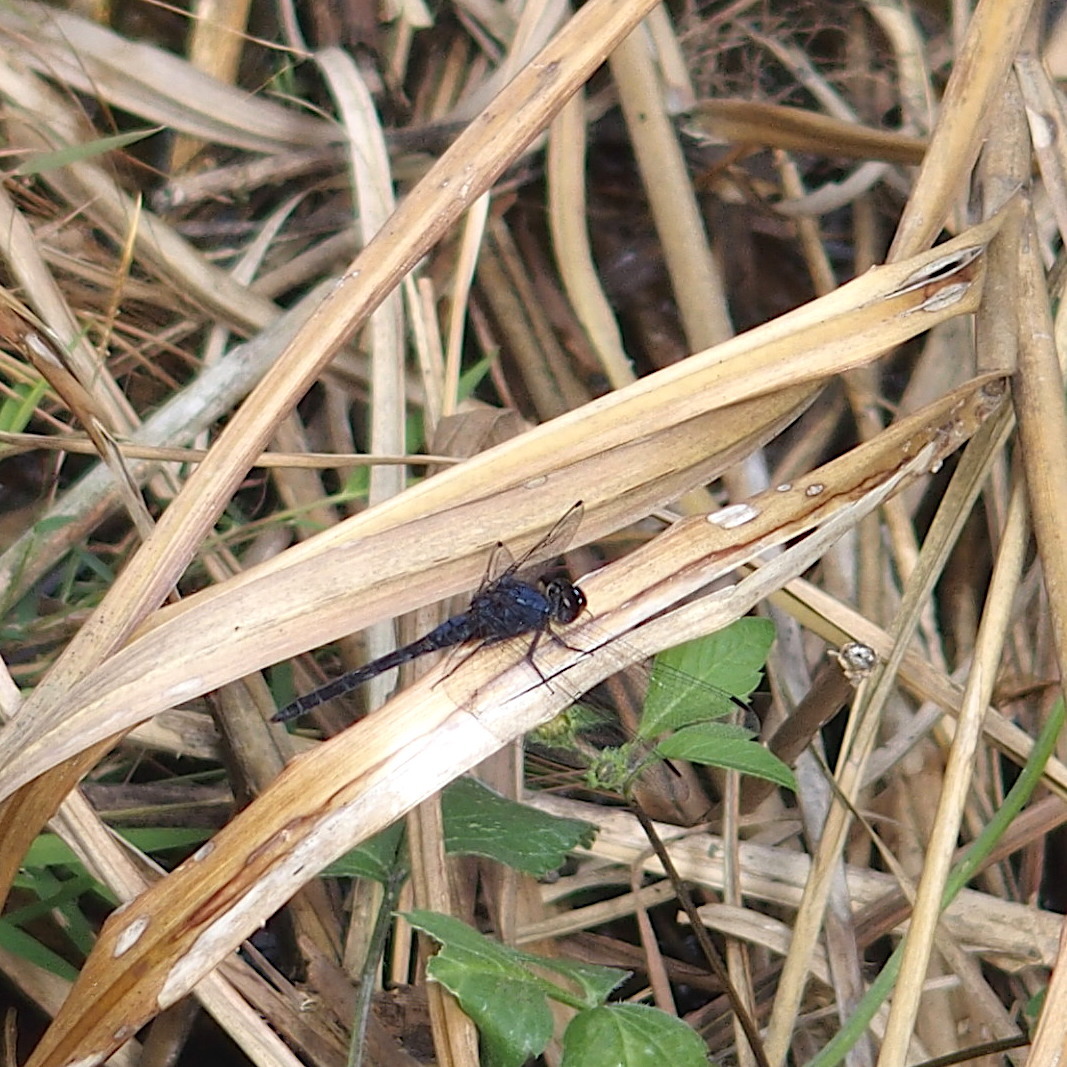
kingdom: Animalia
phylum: Arthropoda
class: Insecta
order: Odonata
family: Libellulidae
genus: Trithemis
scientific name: Trithemis festiva
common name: Indigo dropwing
